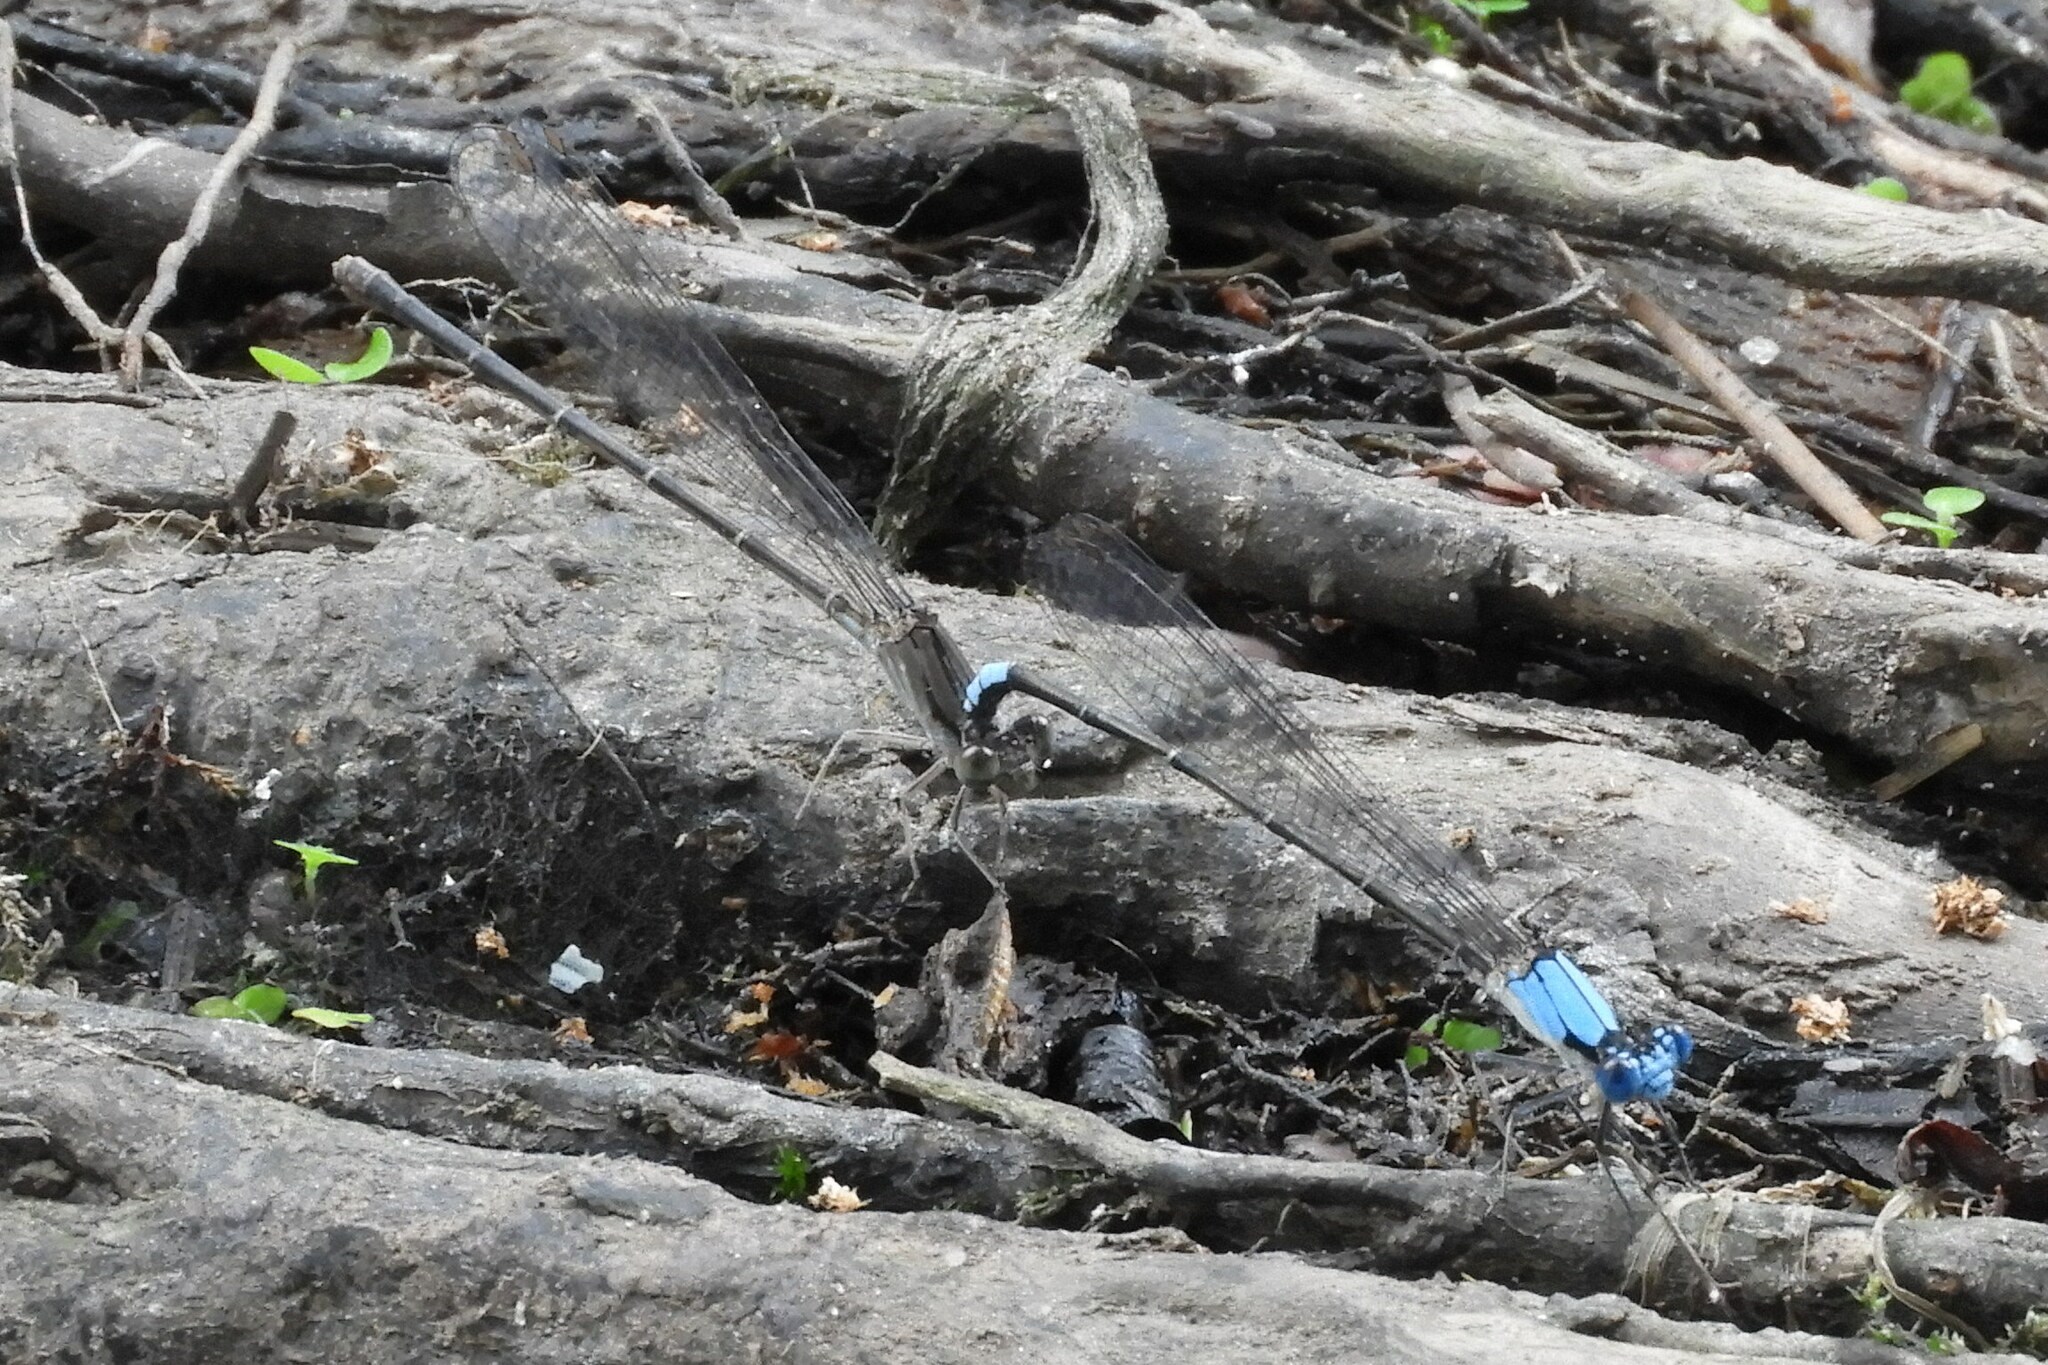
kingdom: Animalia
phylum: Arthropoda
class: Insecta
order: Odonata
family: Coenagrionidae
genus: Argia
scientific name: Argia apicalis
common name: Blue-fronted dancer
